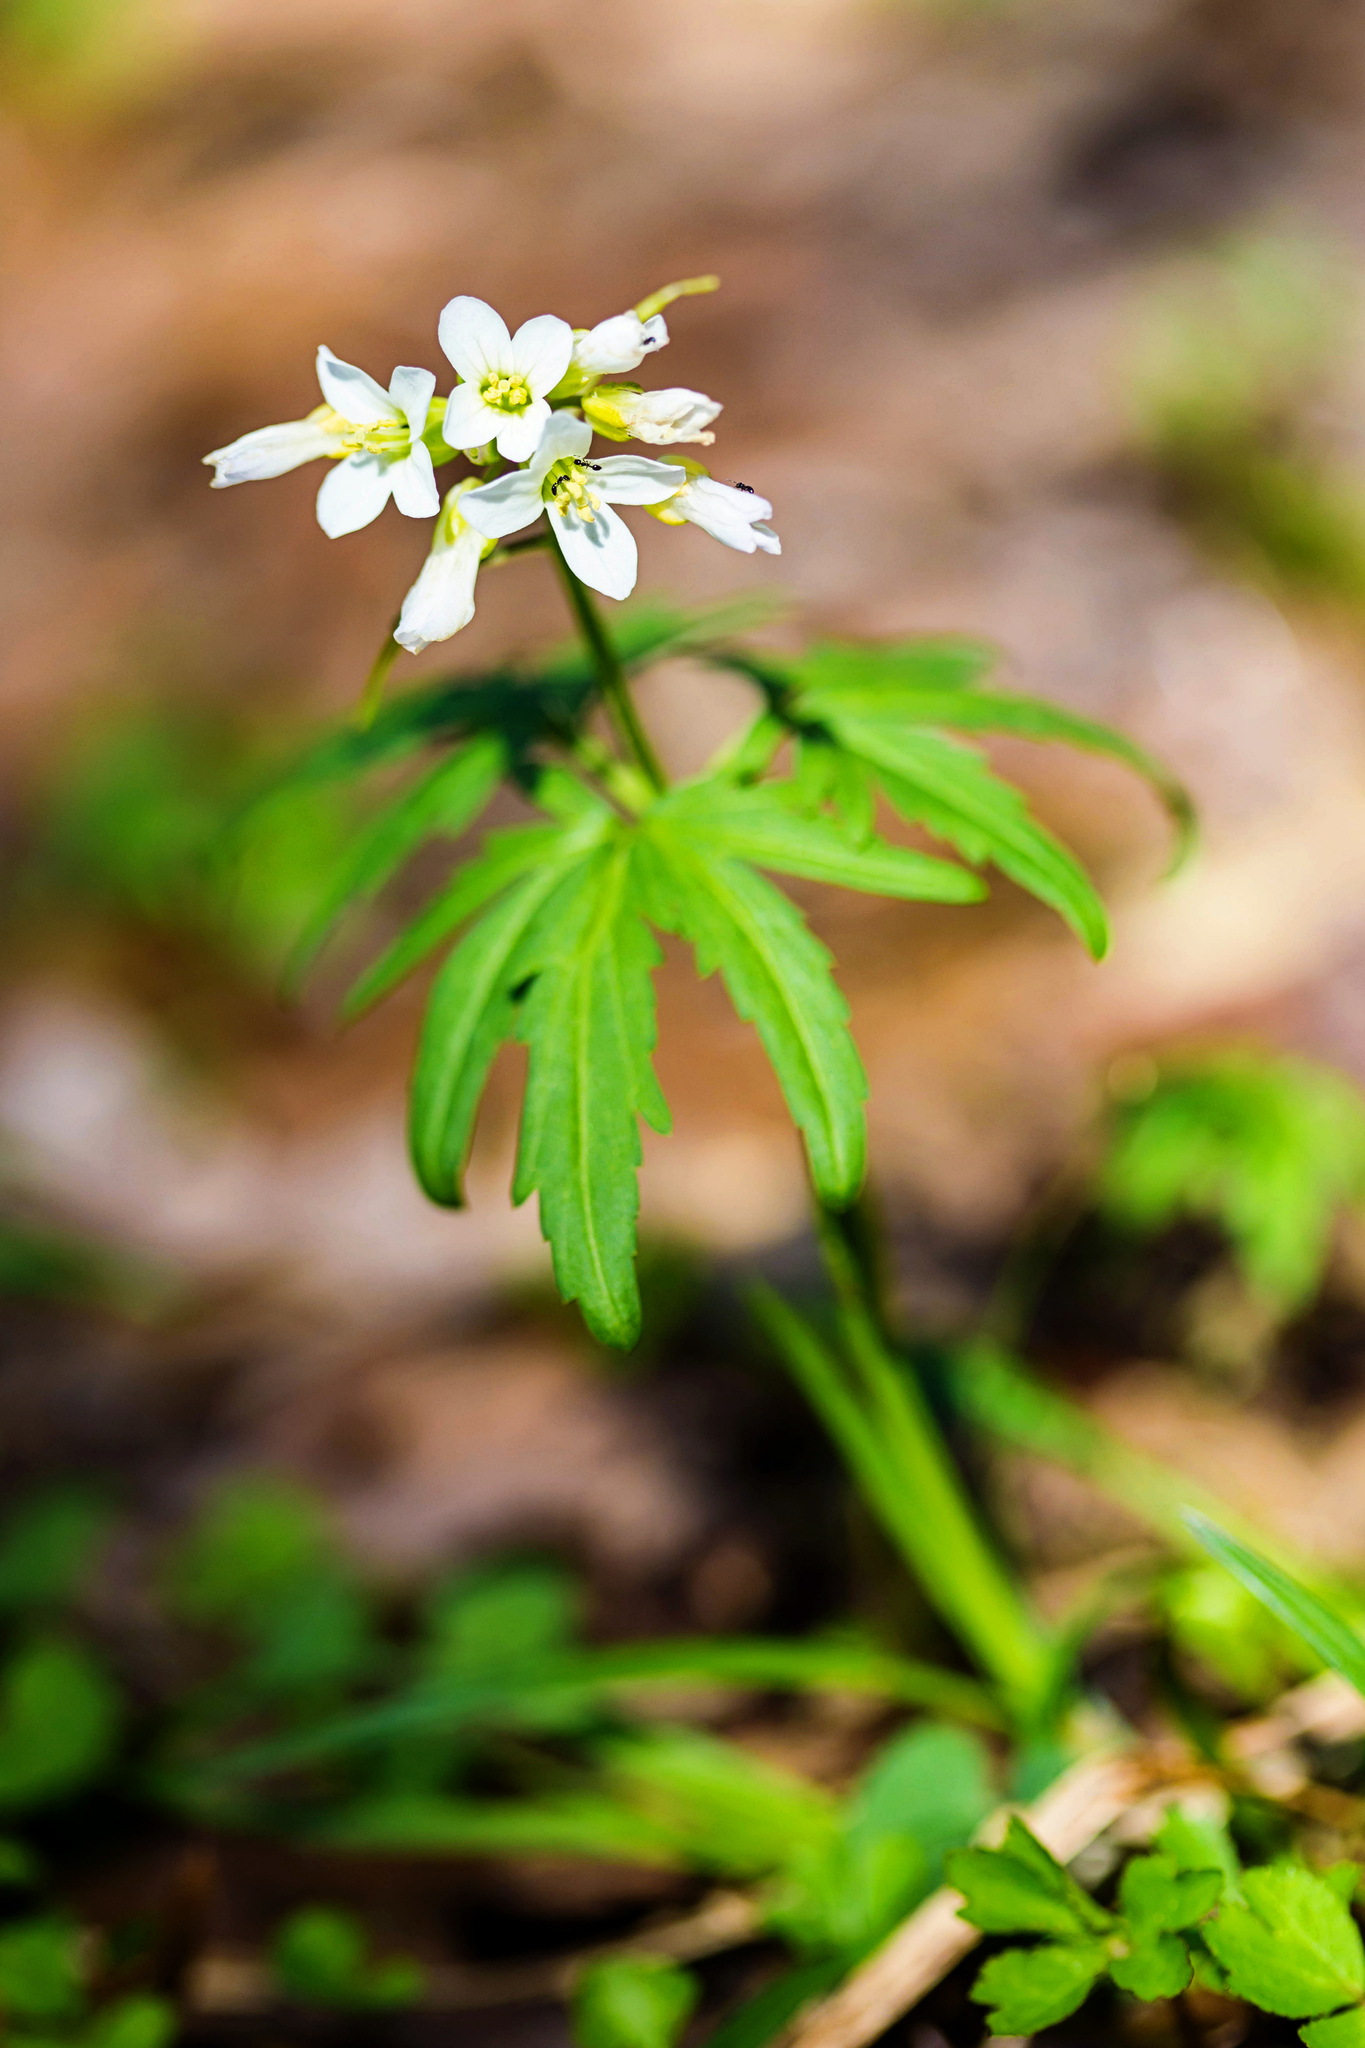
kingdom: Plantae
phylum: Tracheophyta
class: Magnoliopsida
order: Brassicales
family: Brassicaceae
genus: Cardamine
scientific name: Cardamine concatenata
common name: Cut-leaf toothcup
